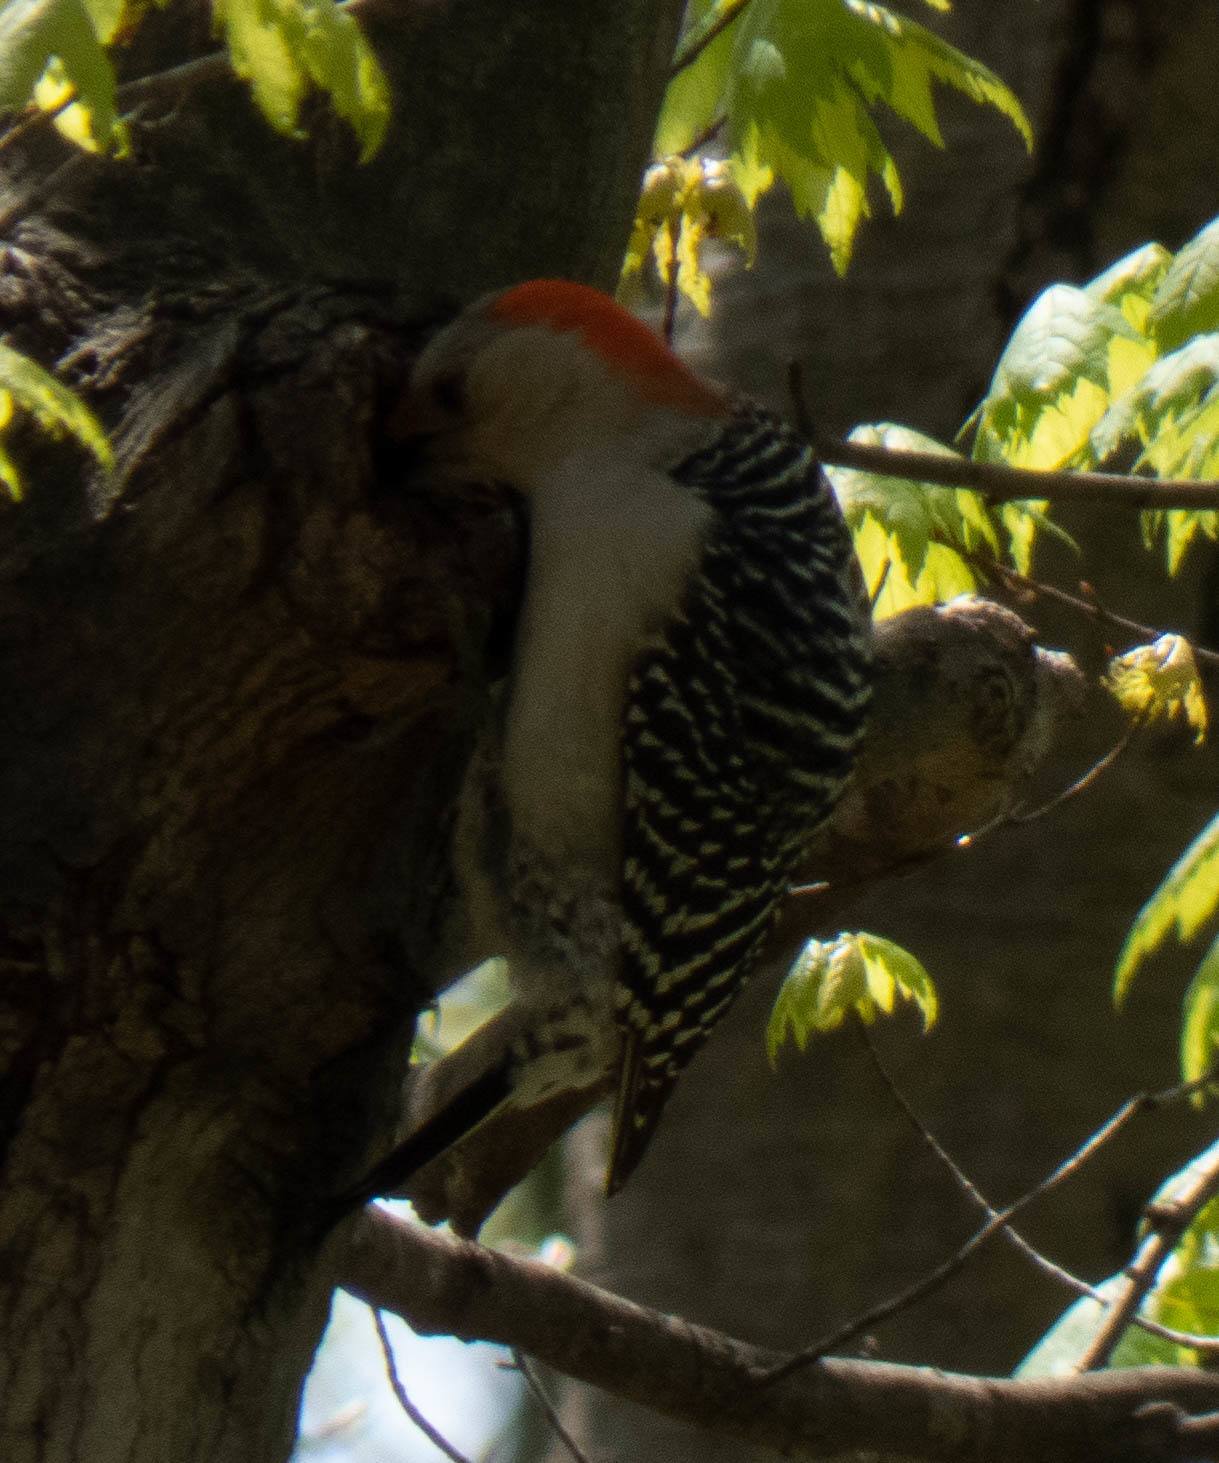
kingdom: Animalia
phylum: Chordata
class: Aves
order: Piciformes
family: Picidae
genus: Melanerpes
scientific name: Melanerpes carolinus
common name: Red-bellied woodpecker
